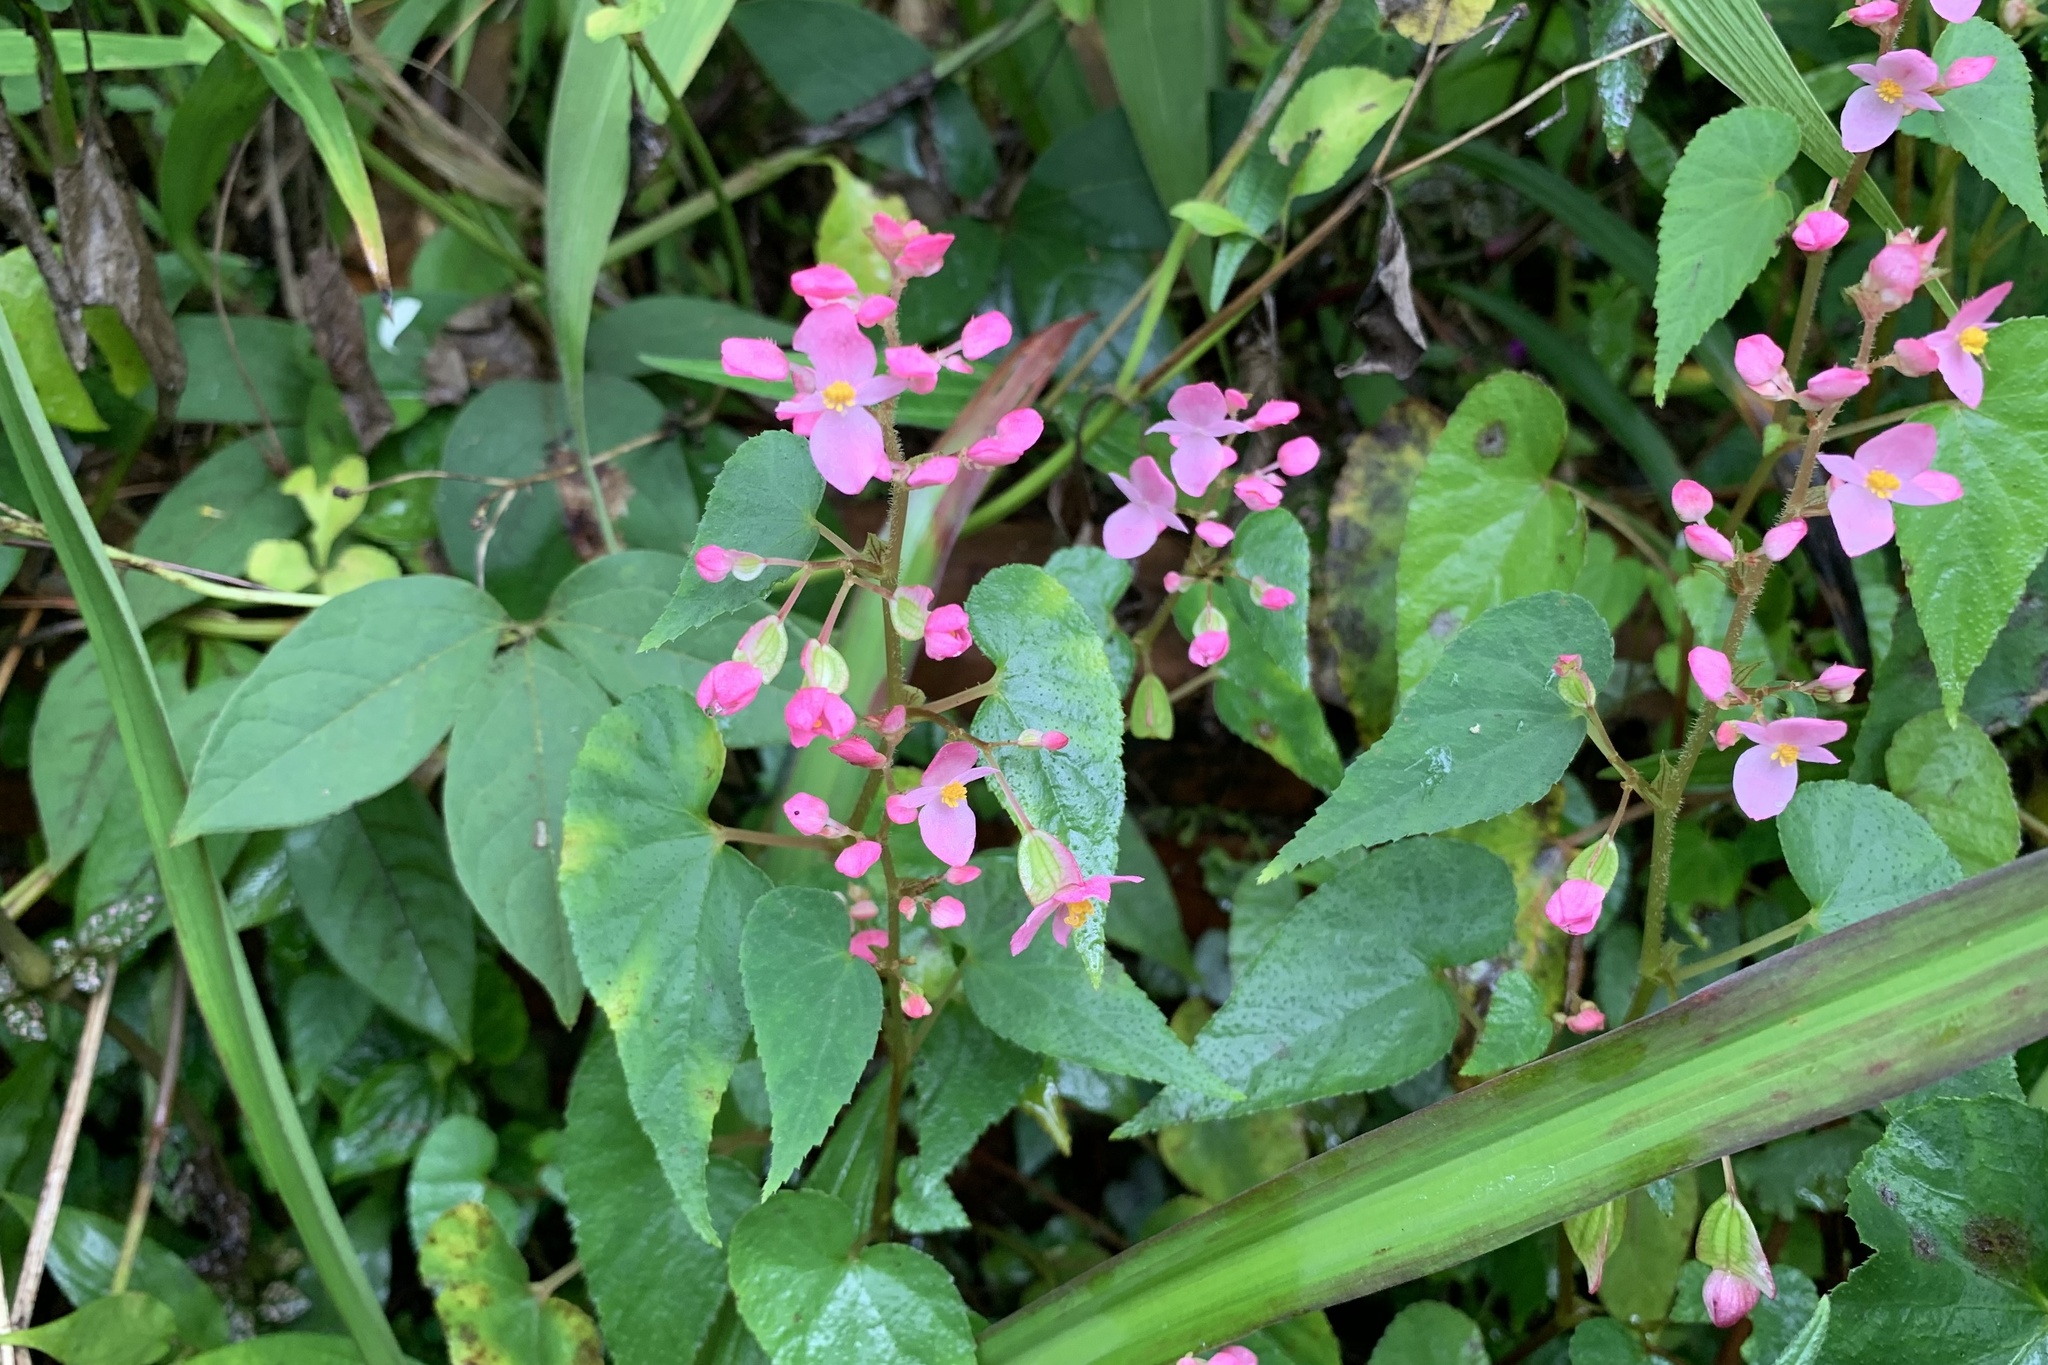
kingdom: Plantae
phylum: Tracheophyta
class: Magnoliopsida
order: Cucurbitales
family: Begoniaceae
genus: Begonia
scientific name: Begonia modestiflora
